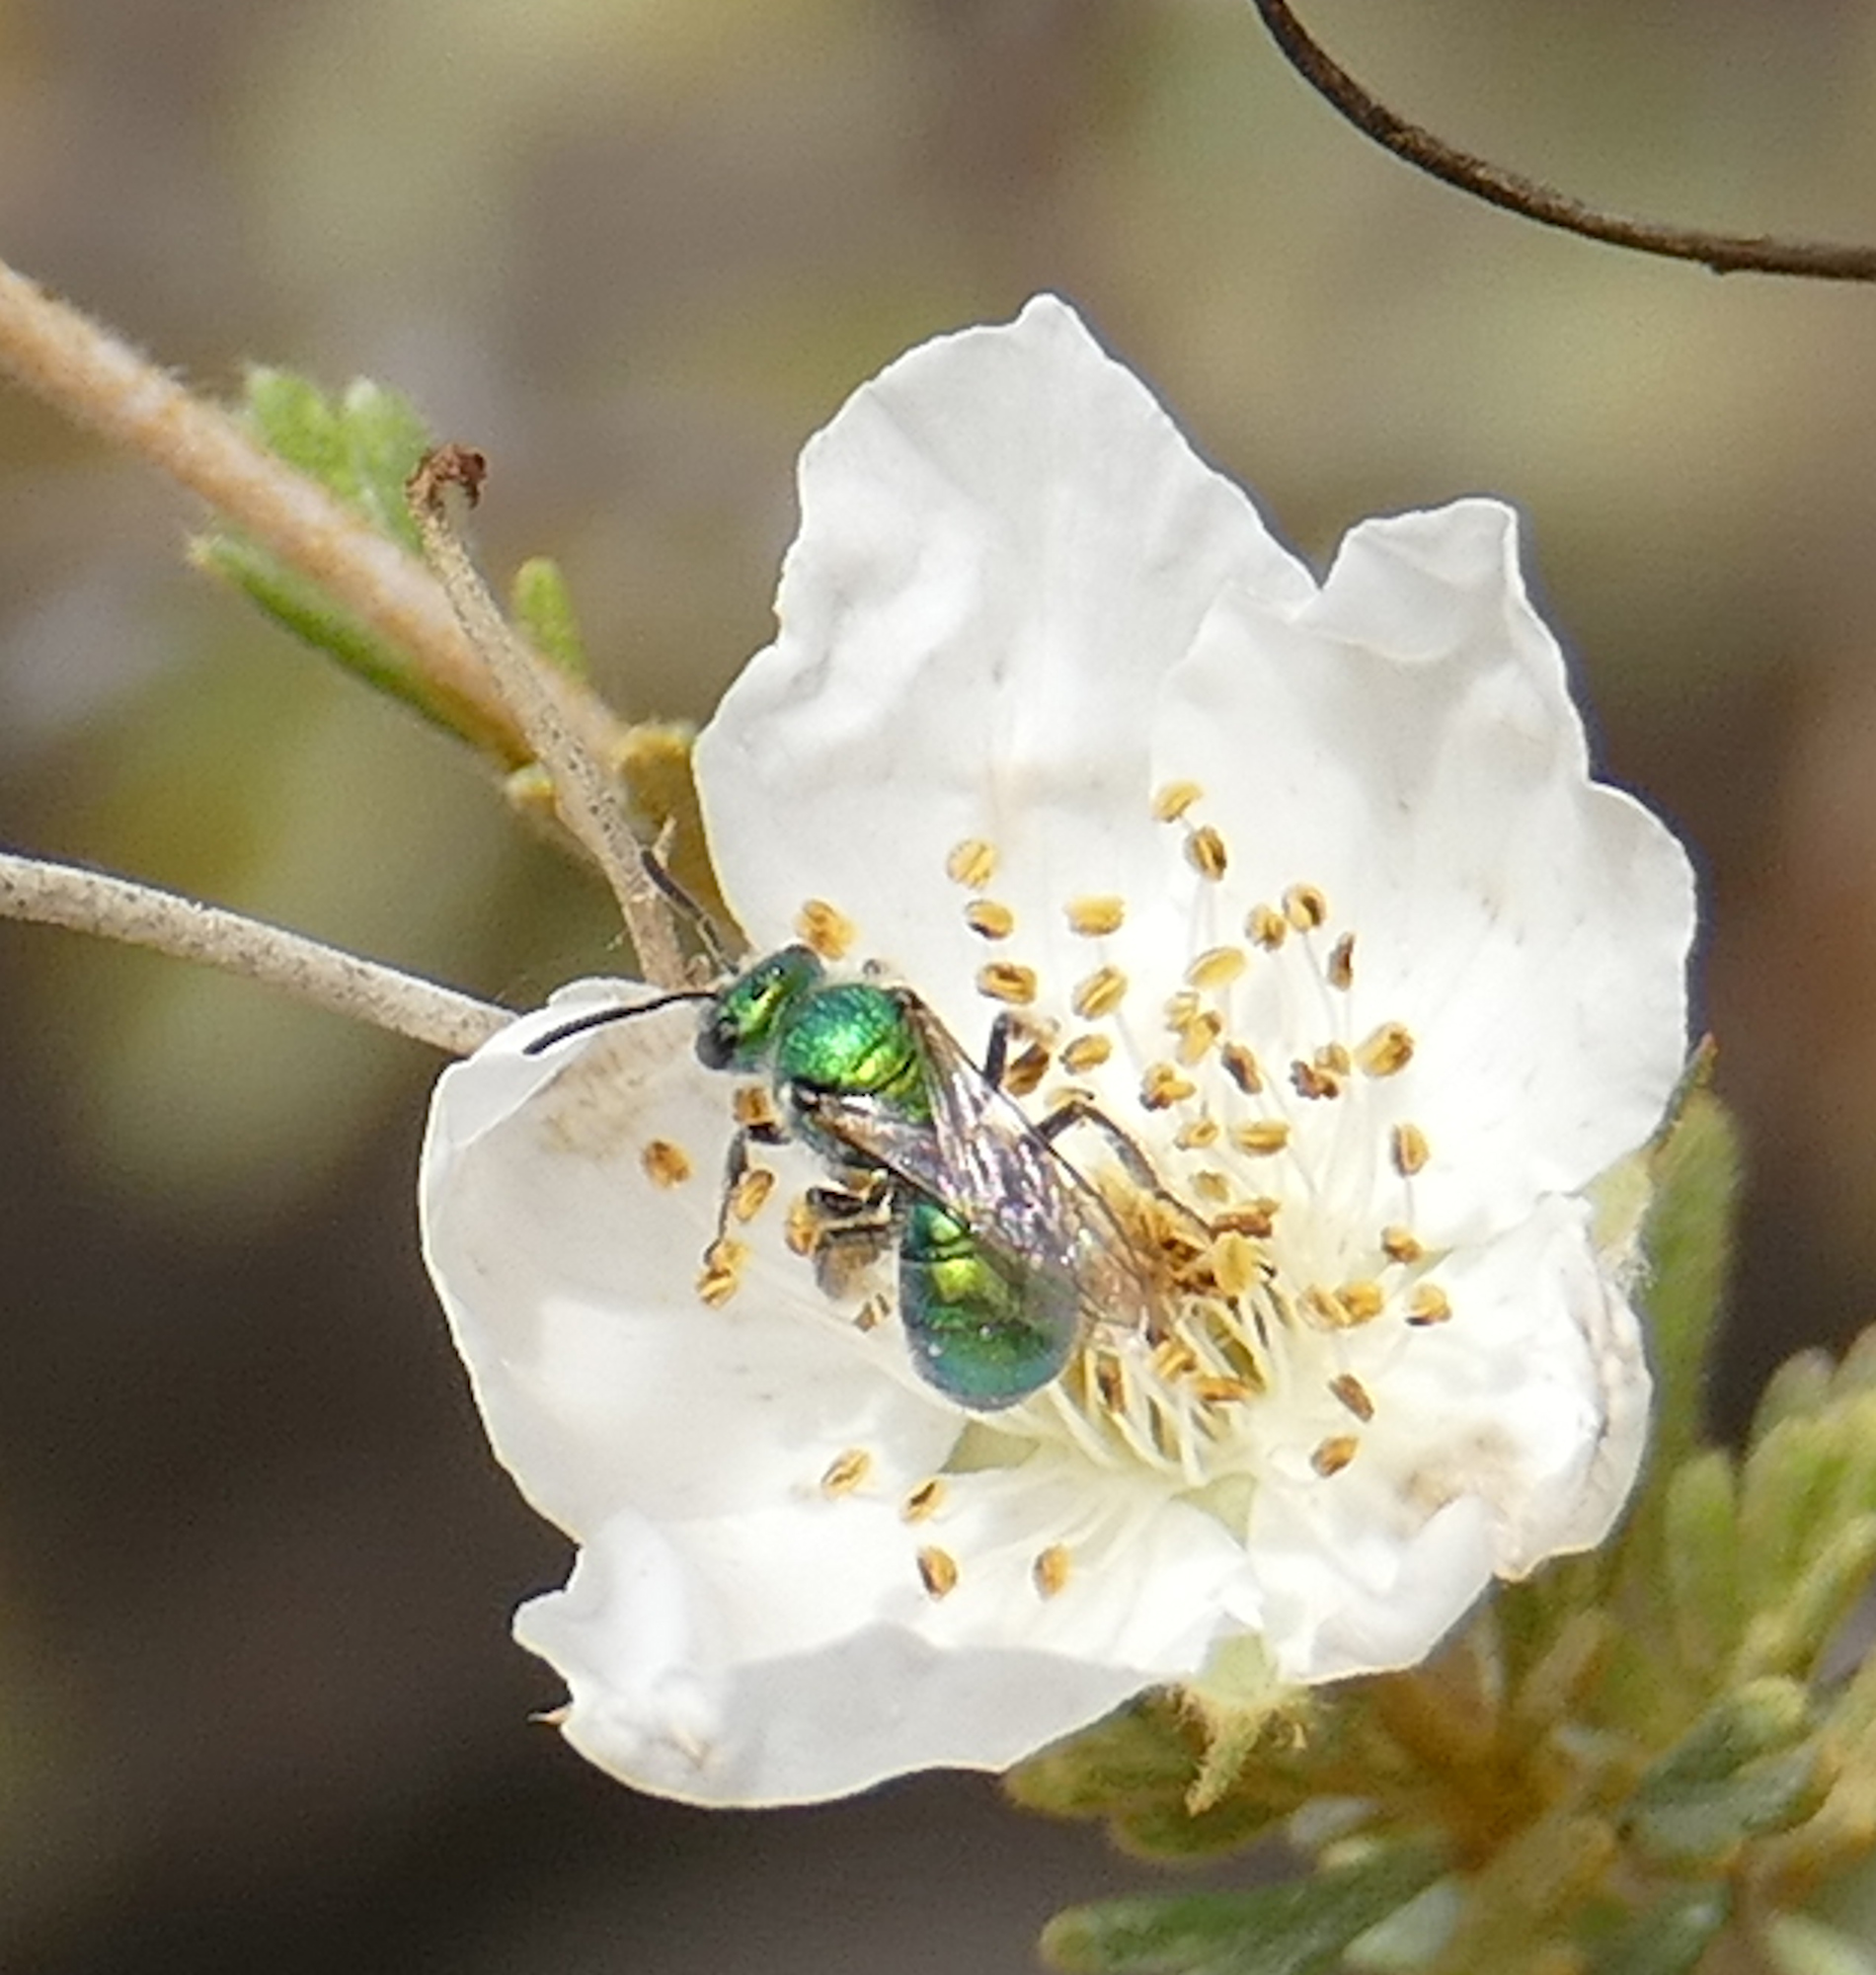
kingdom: Animalia
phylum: Arthropoda
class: Insecta
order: Hymenoptera
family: Halictidae
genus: Augochlorella
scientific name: Augochlorella
